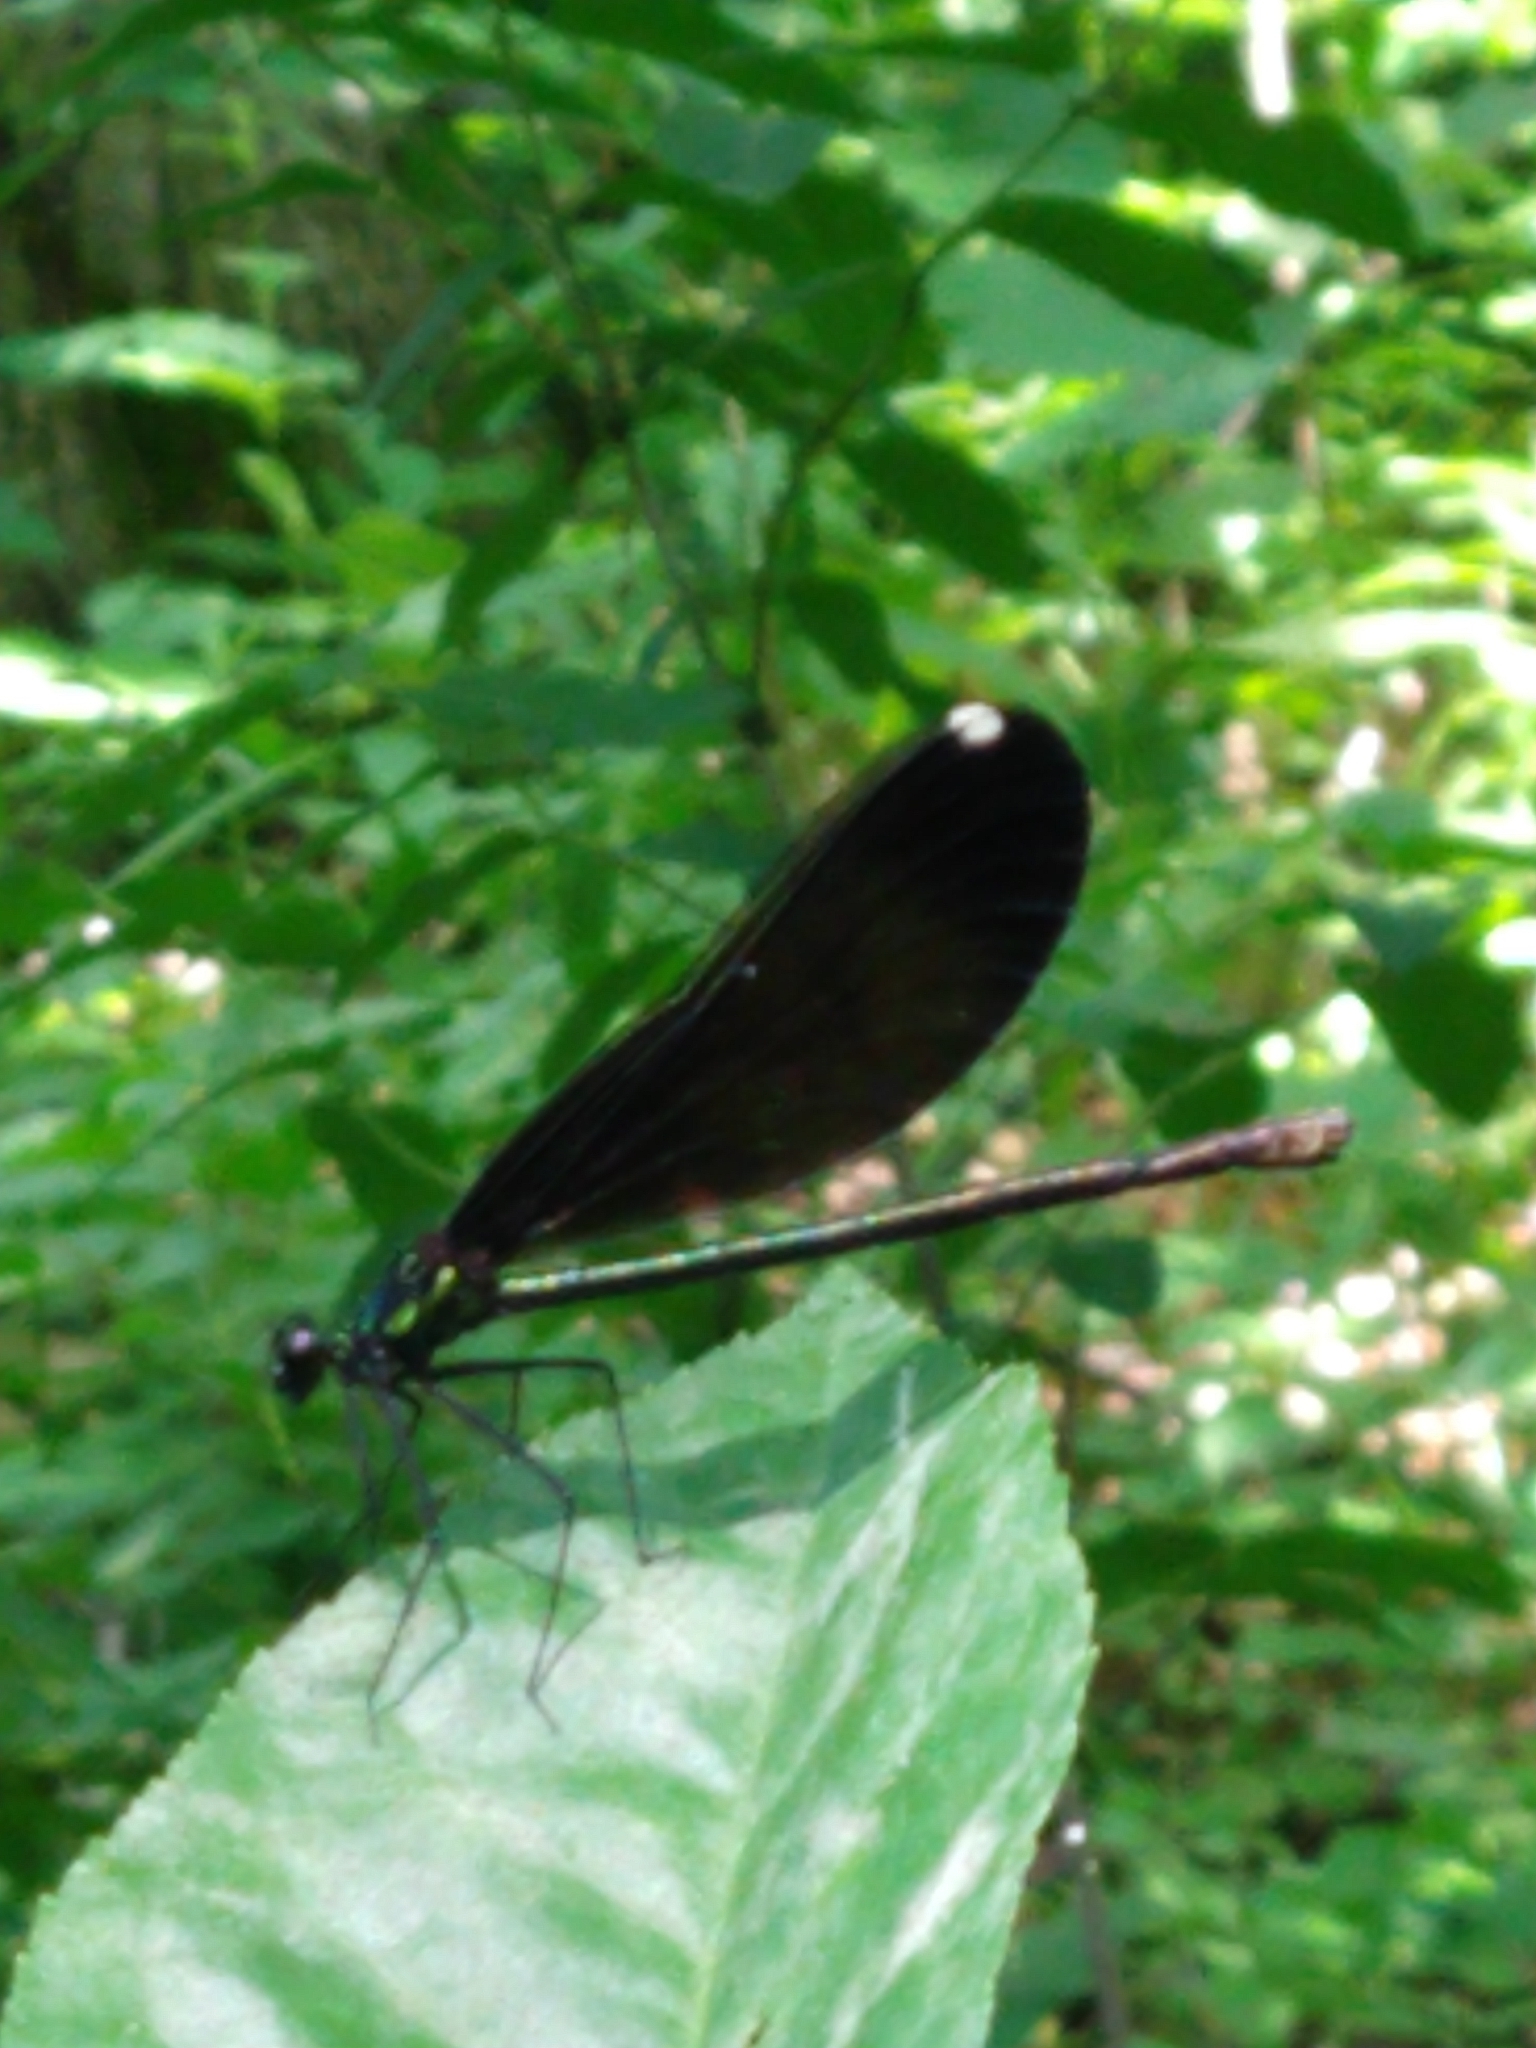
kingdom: Animalia
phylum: Arthropoda
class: Insecta
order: Odonata
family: Calopterygidae
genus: Calopteryx
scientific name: Calopteryx maculata
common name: Ebony jewelwing
